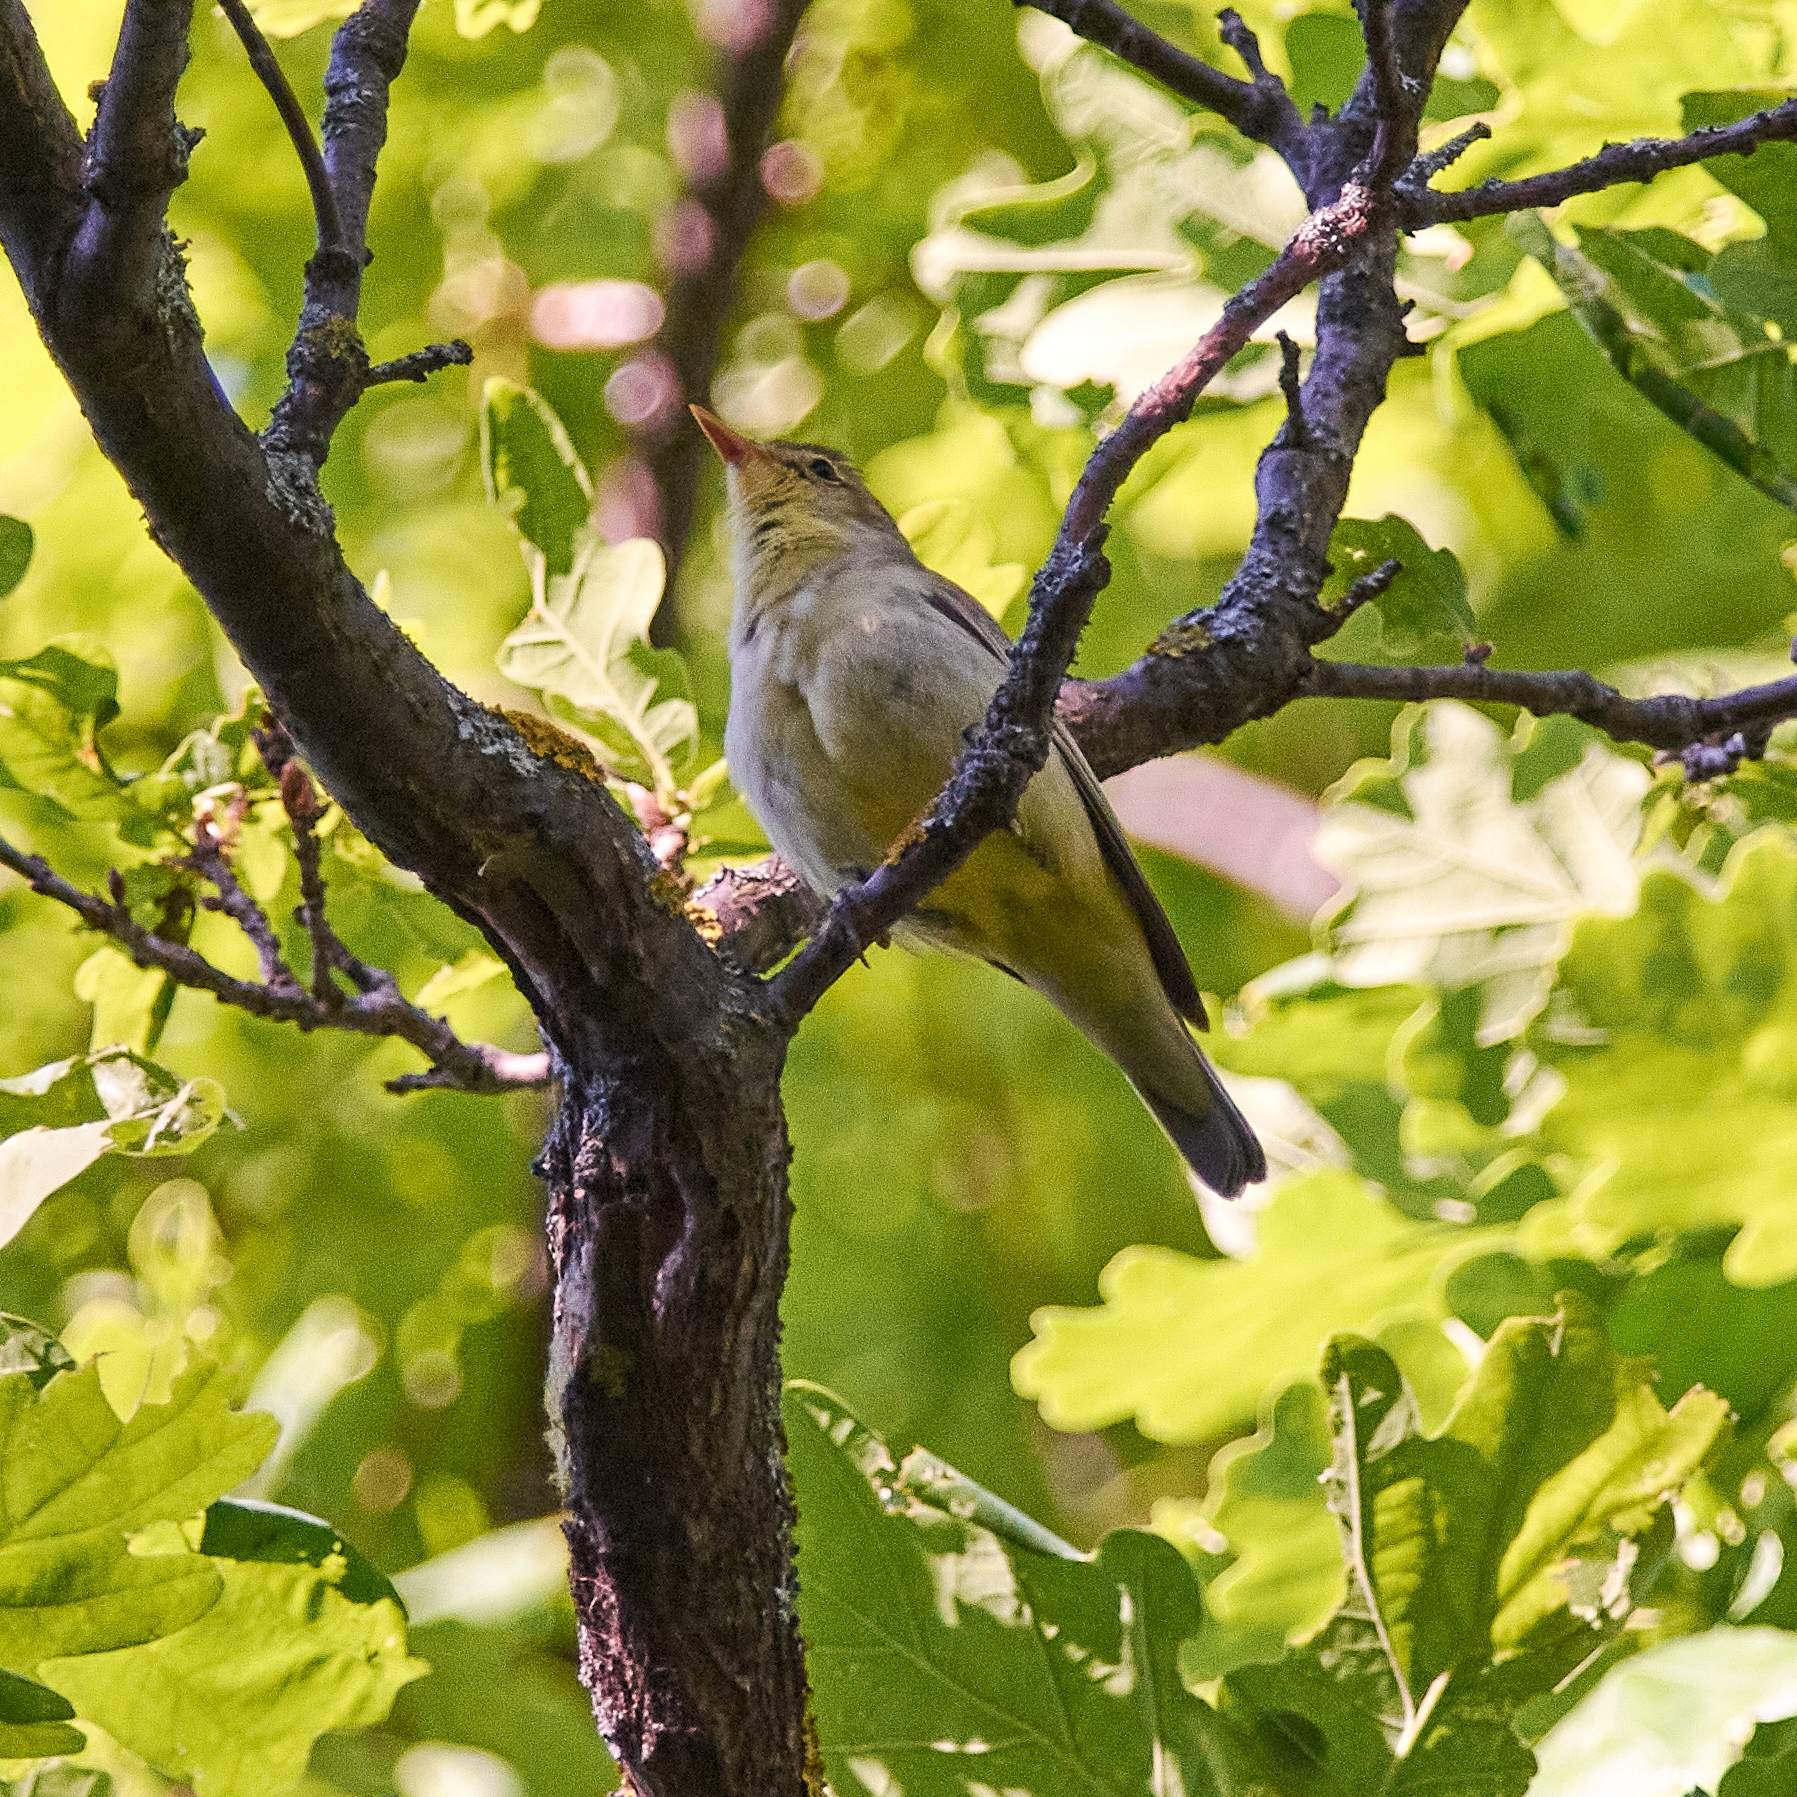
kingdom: Animalia
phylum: Chordata
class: Aves
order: Passeriformes
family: Acrocephalidae
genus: Hippolais
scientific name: Hippolais icterina
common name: Icterine warbler
